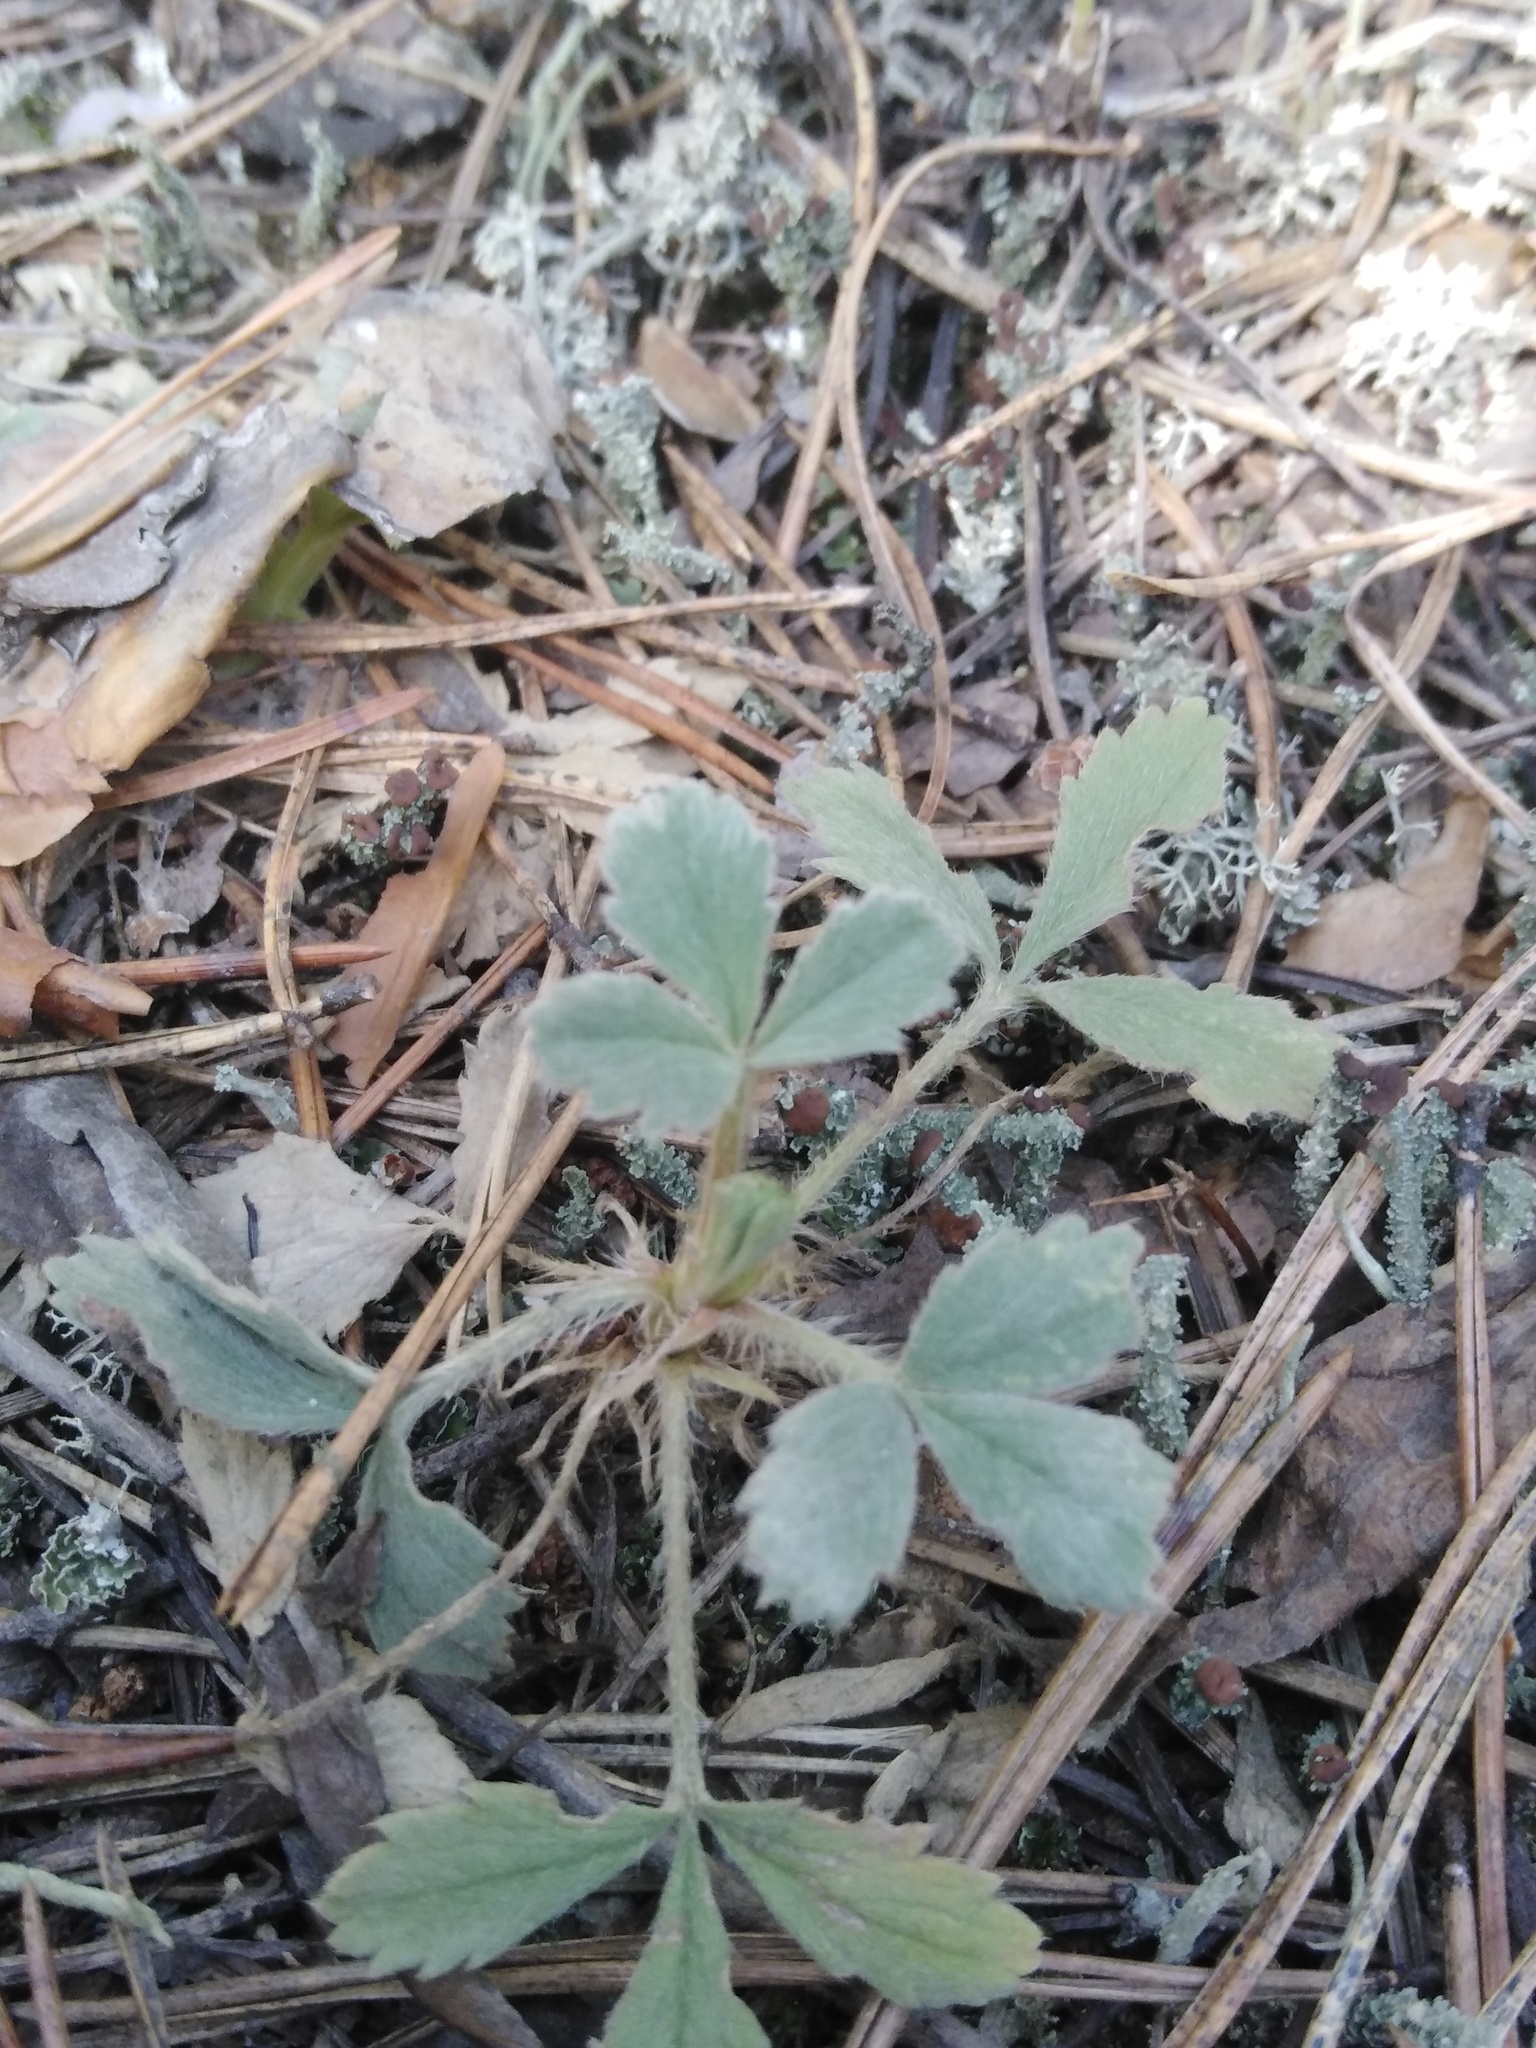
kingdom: Plantae
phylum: Tracheophyta
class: Magnoliopsida
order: Rosales
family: Rosaceae
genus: Potentilla
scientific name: Potentilla incana
